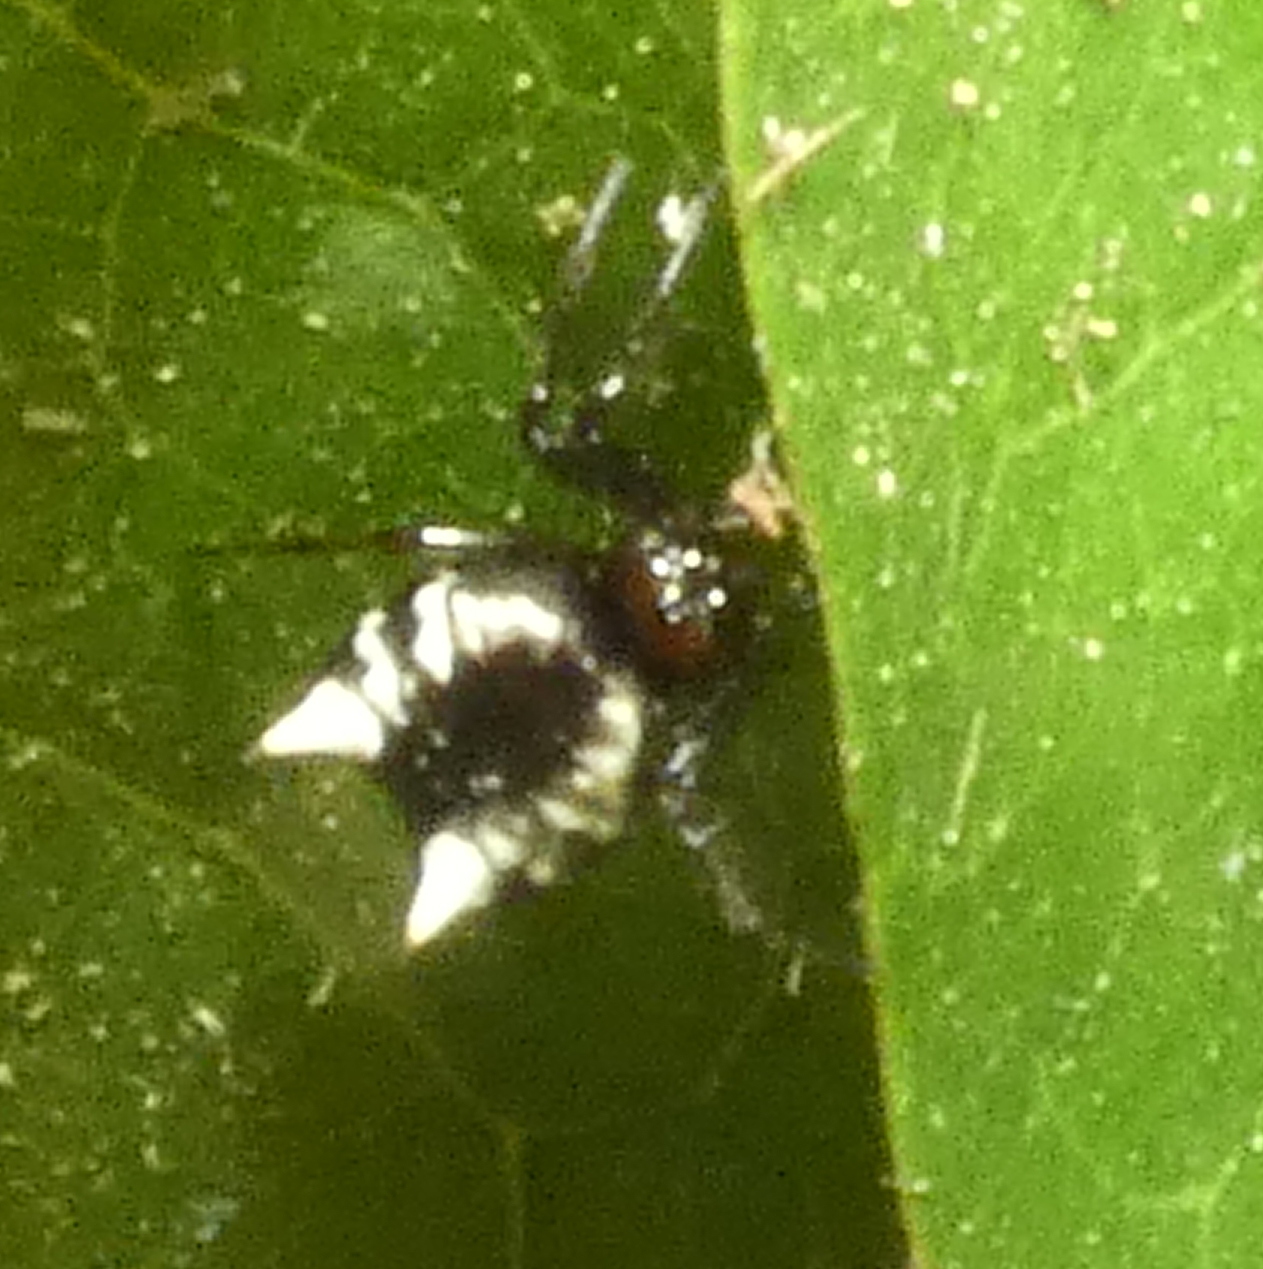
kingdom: Animalia
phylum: Arthropoda
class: Arachnida
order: Araneae
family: Araneidae
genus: Micrathena
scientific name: Micrathena patruelis
